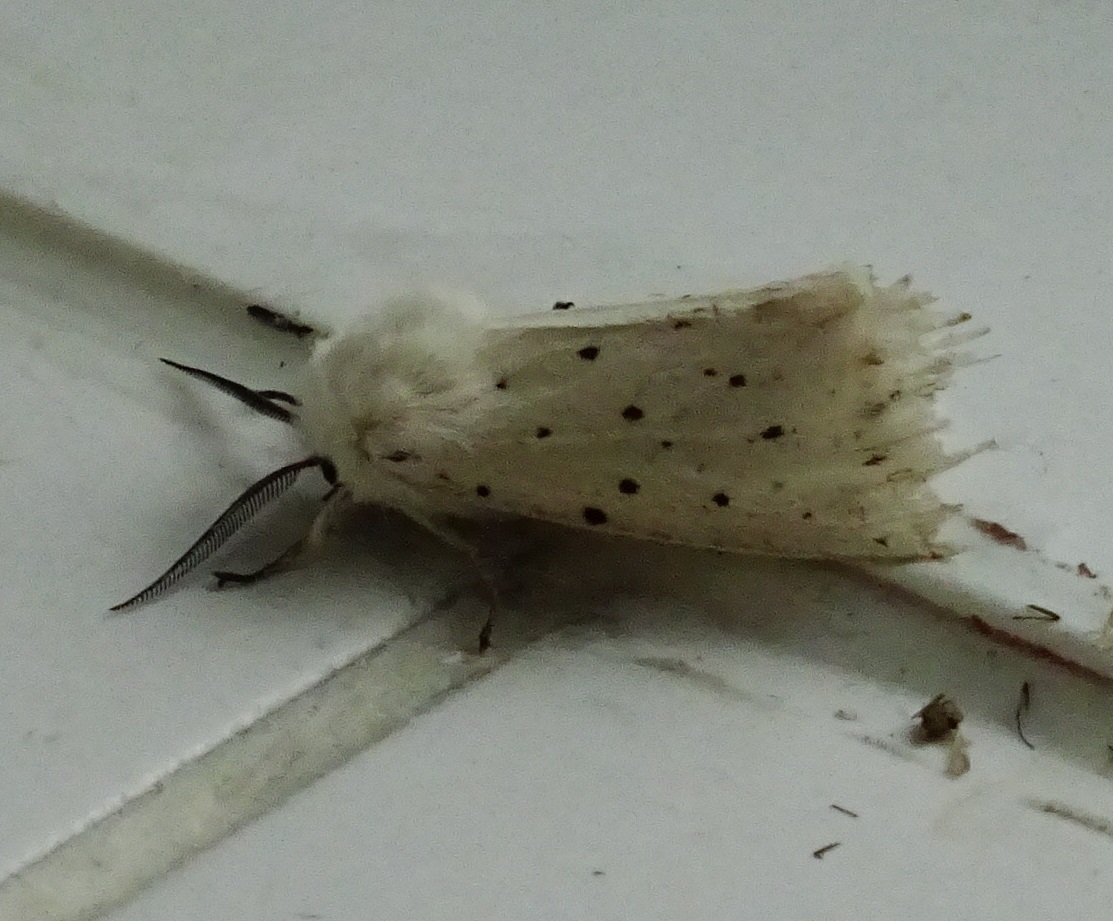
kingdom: Animalia
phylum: Arthropoda
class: Insecta
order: Lepidoptera
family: Erebidae
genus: Spilosoma
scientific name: Spilosoma lubricipeda
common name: White ermine
